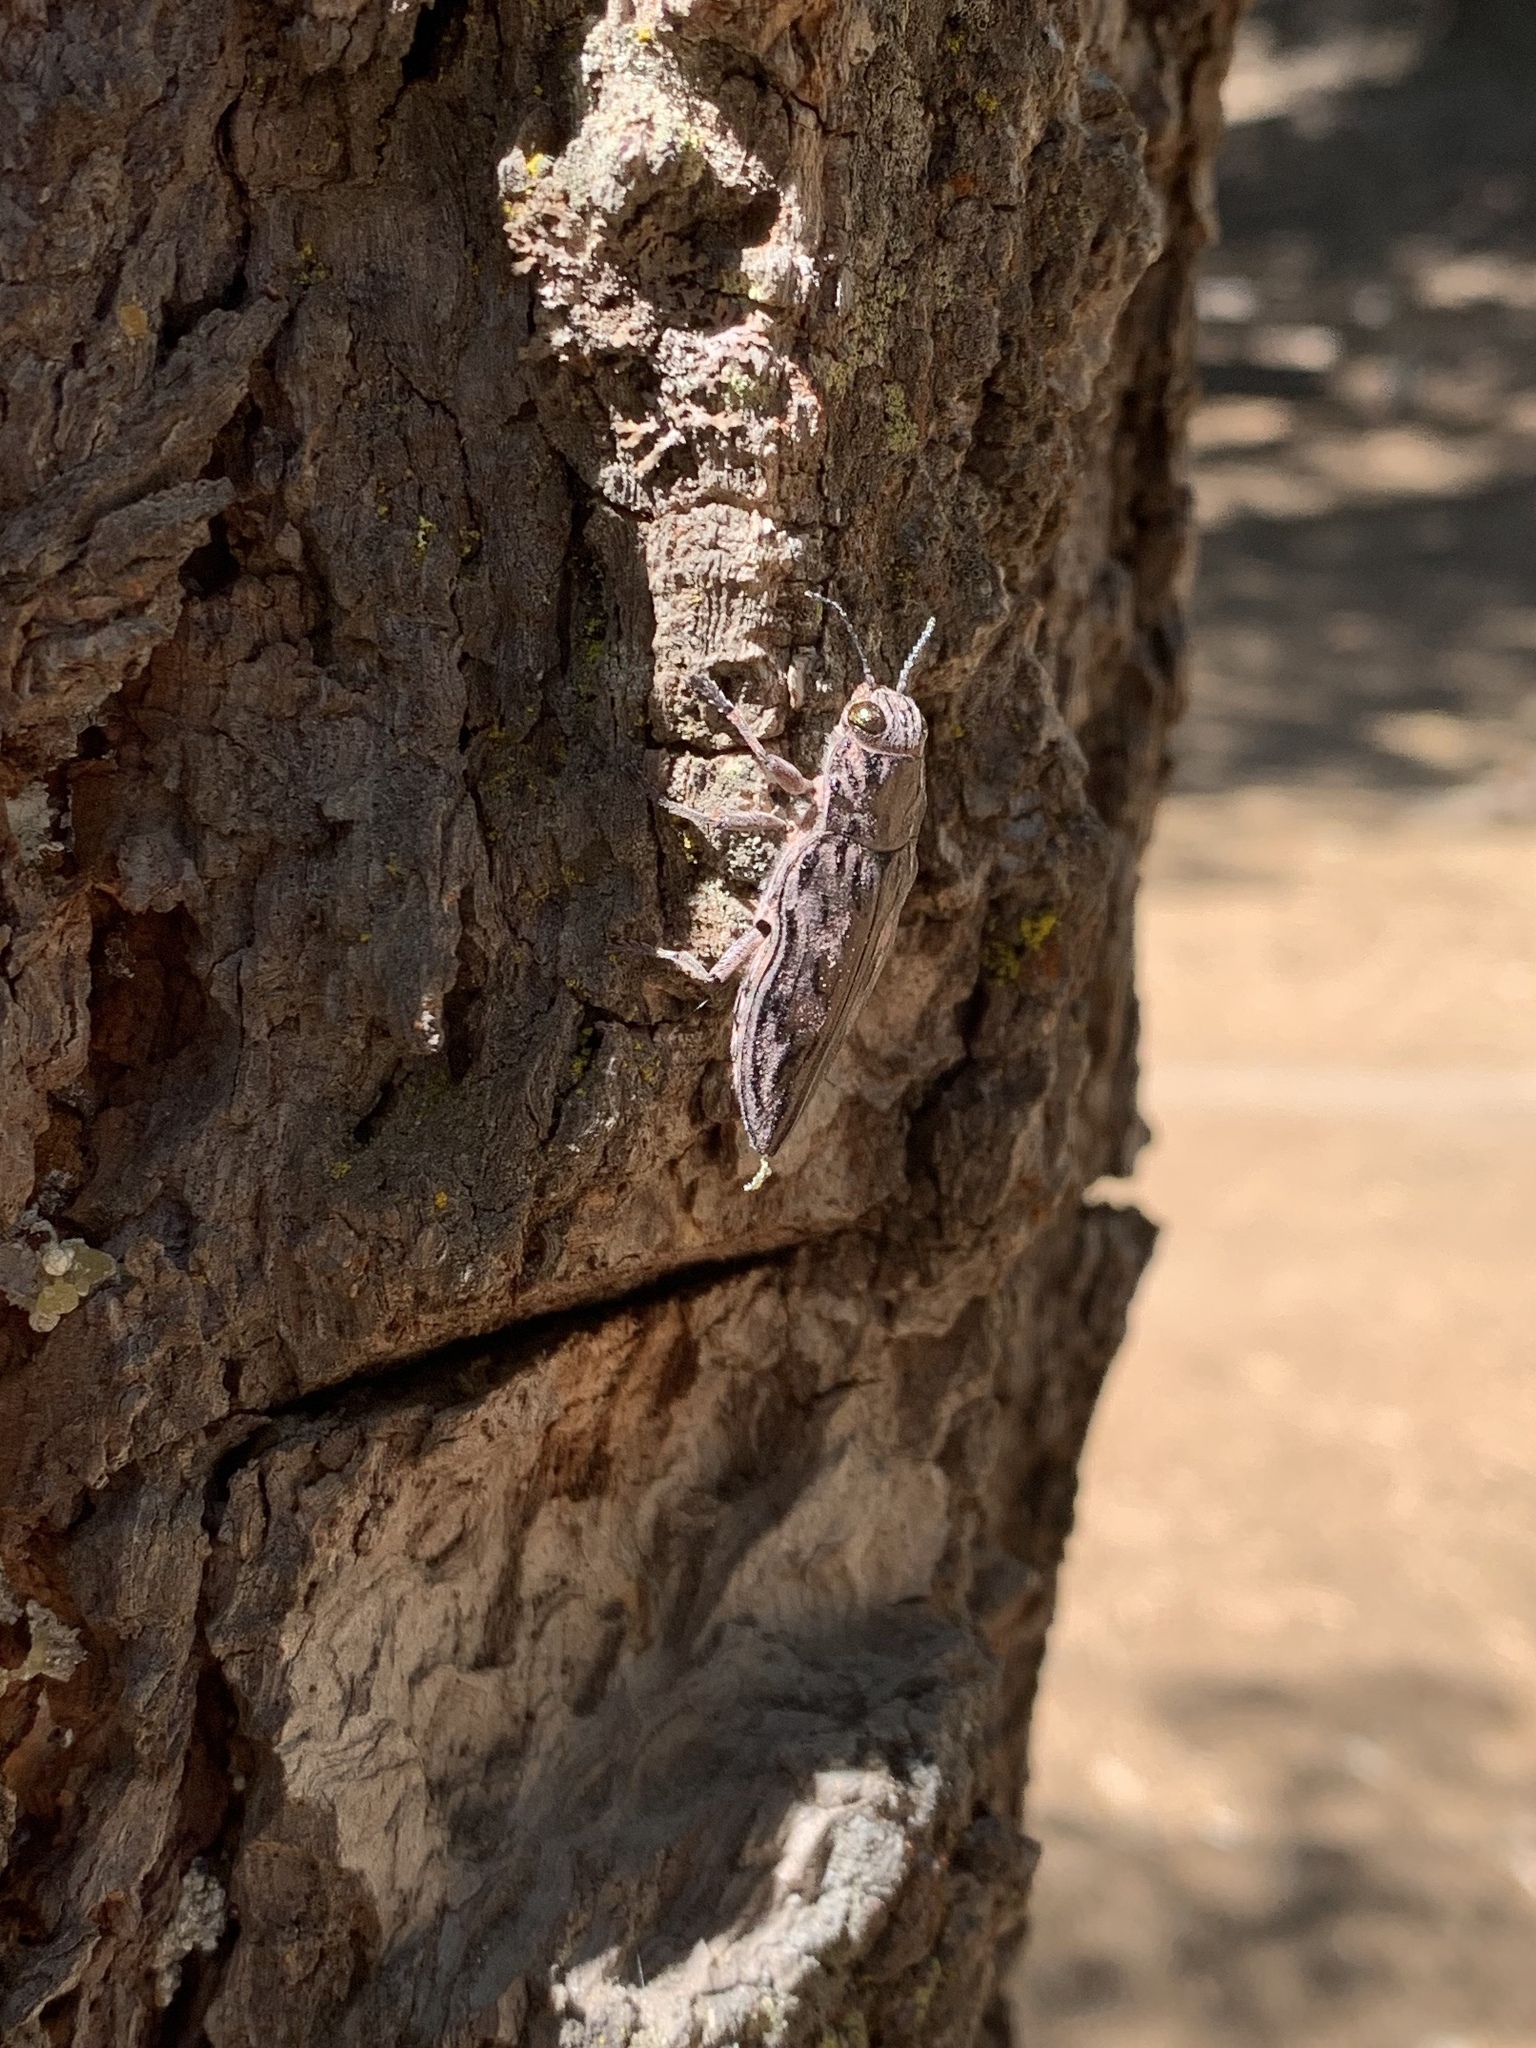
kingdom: Animalia
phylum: Arthropoda
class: Insecta
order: Coleoptera
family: Buprestidae
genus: Chalcophora
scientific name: Chalcophora angulicollis
